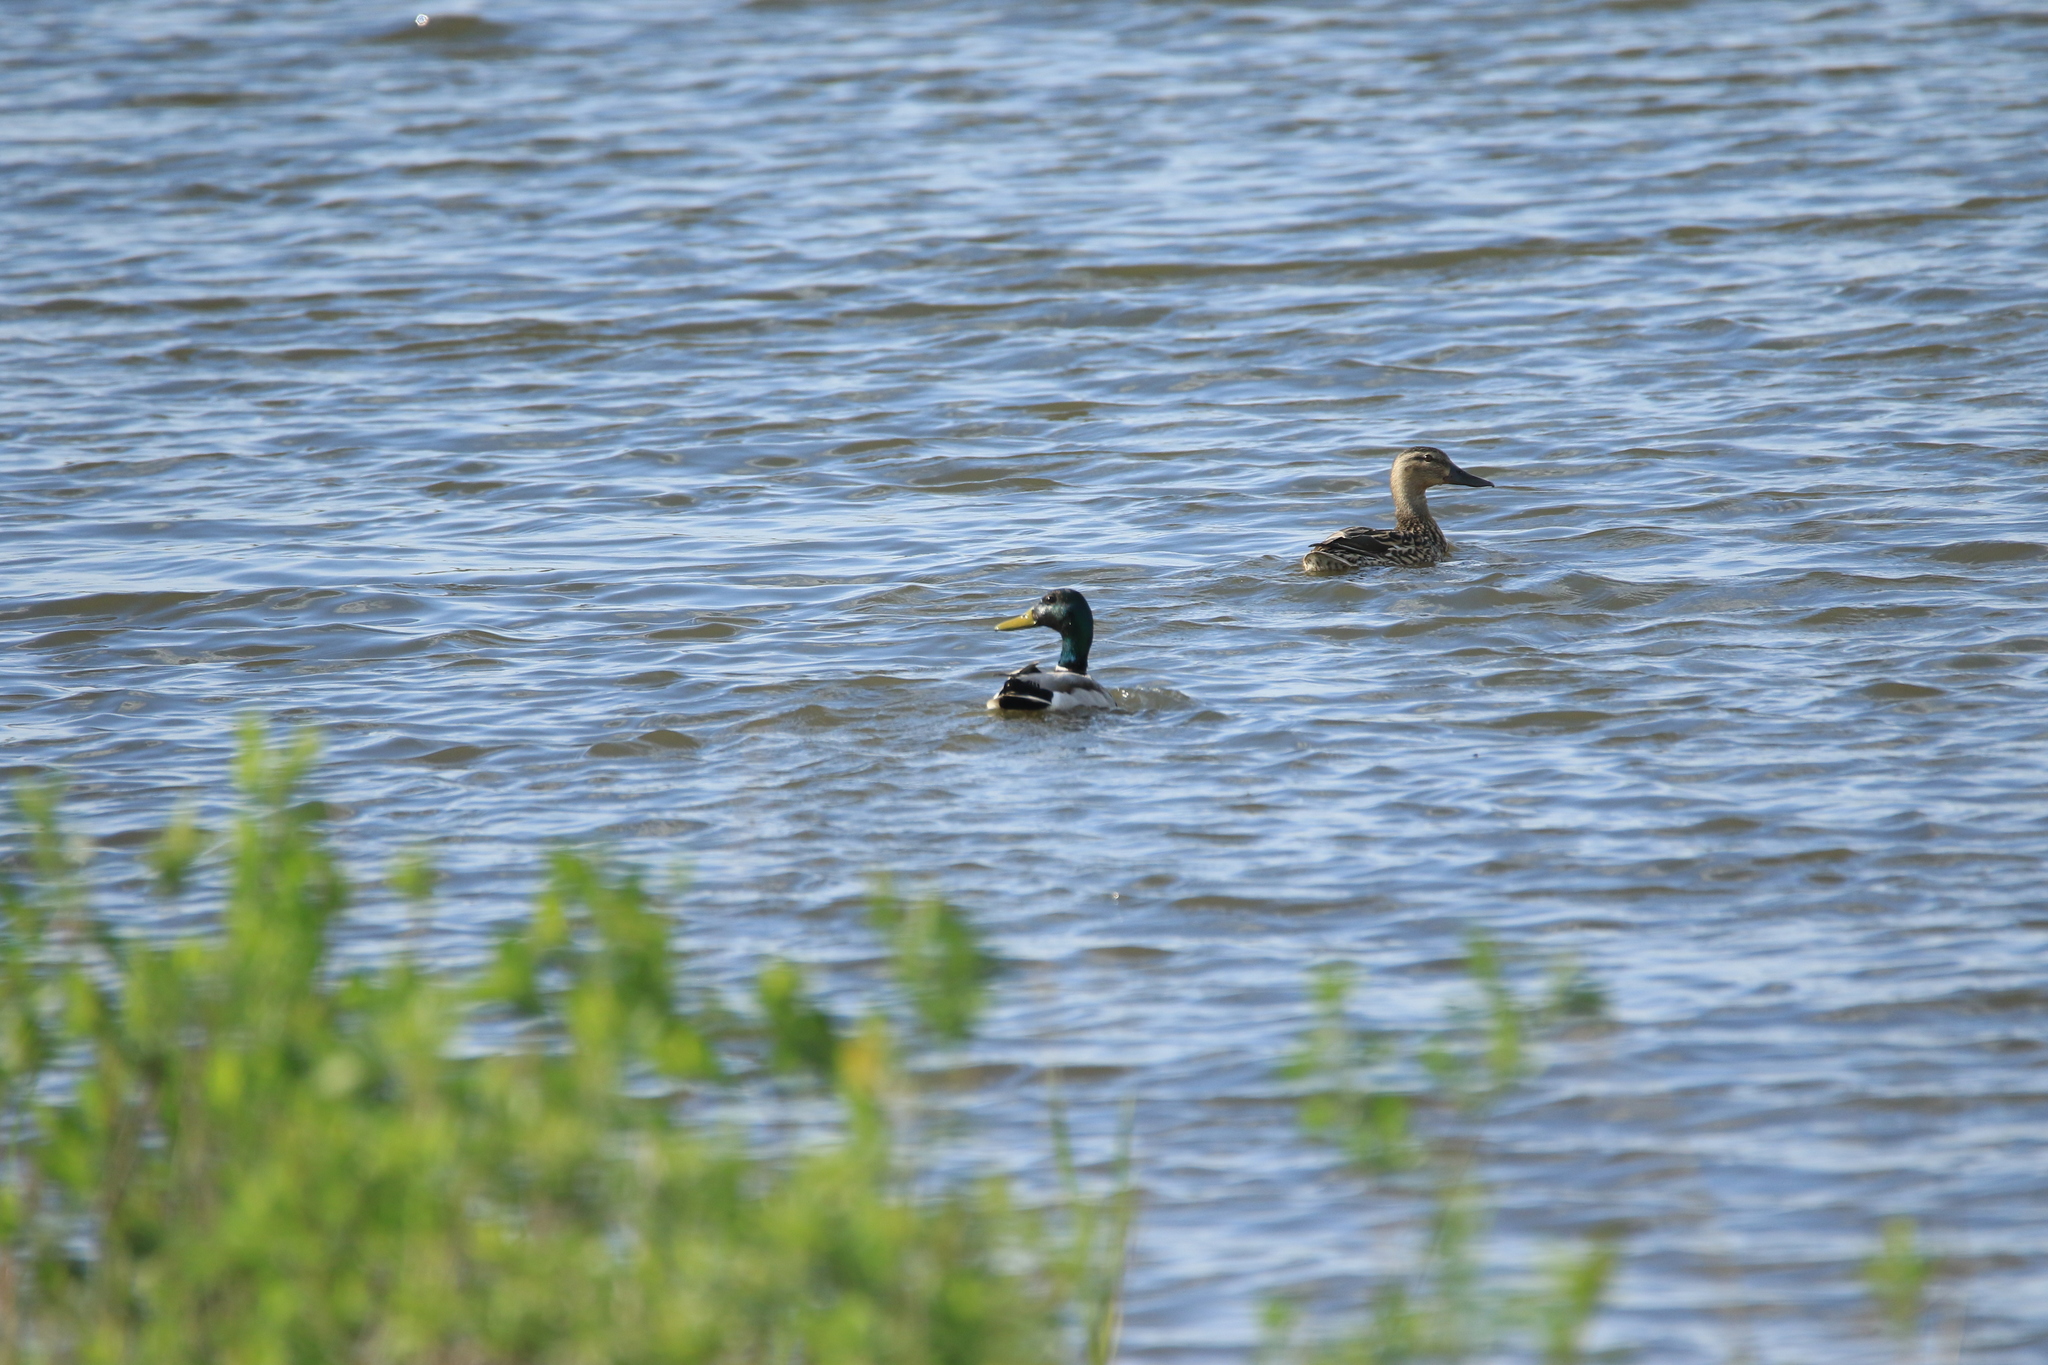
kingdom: Animalia
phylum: Chordata
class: Aves
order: Anseriformes
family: Anatidae
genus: Anas
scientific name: Anas platyrhynchos
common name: Mallard
